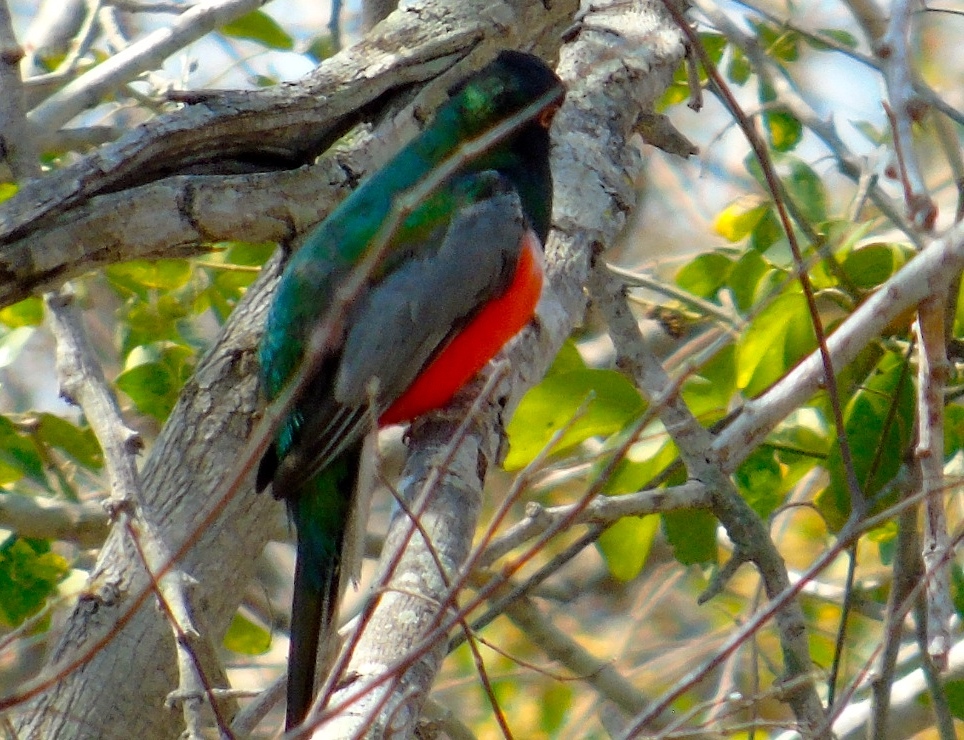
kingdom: Animalia
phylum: Chordata
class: Aves
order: Trogoniformes
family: Trogonidae
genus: Trogon
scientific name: Trogon elegans
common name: Elegant trogon
